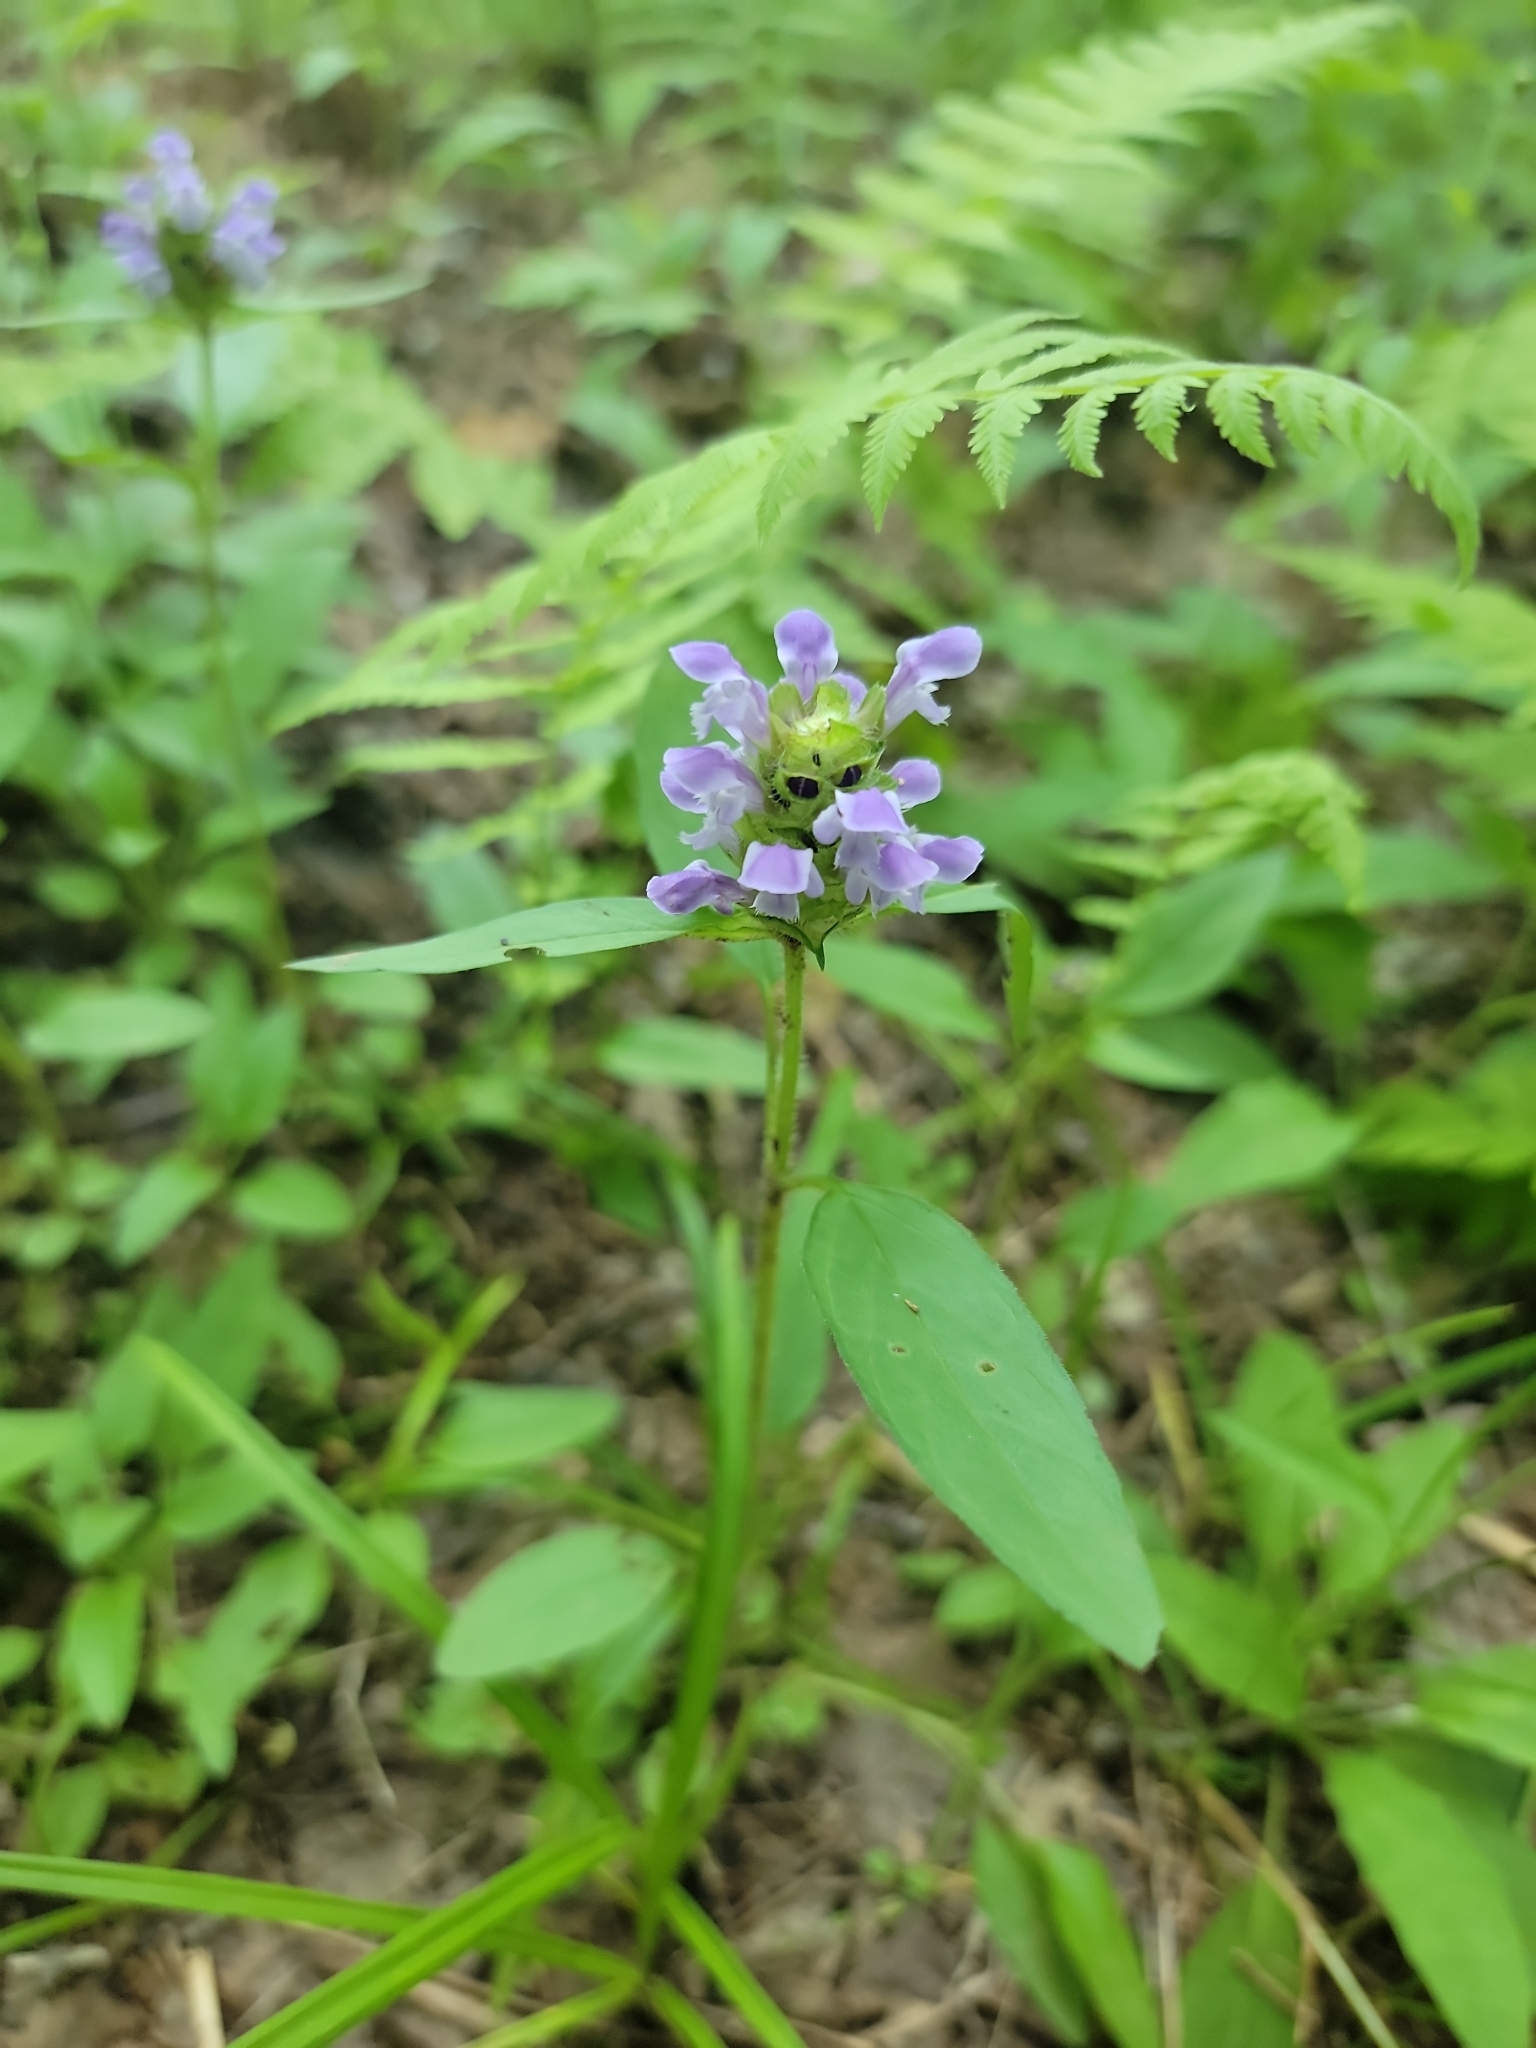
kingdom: Plantae
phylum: Tracheophyta
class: Magnoliopsida
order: Lamiales
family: Lamiaceae
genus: Prunella
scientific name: Prunella vulgaris
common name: Heal-all
